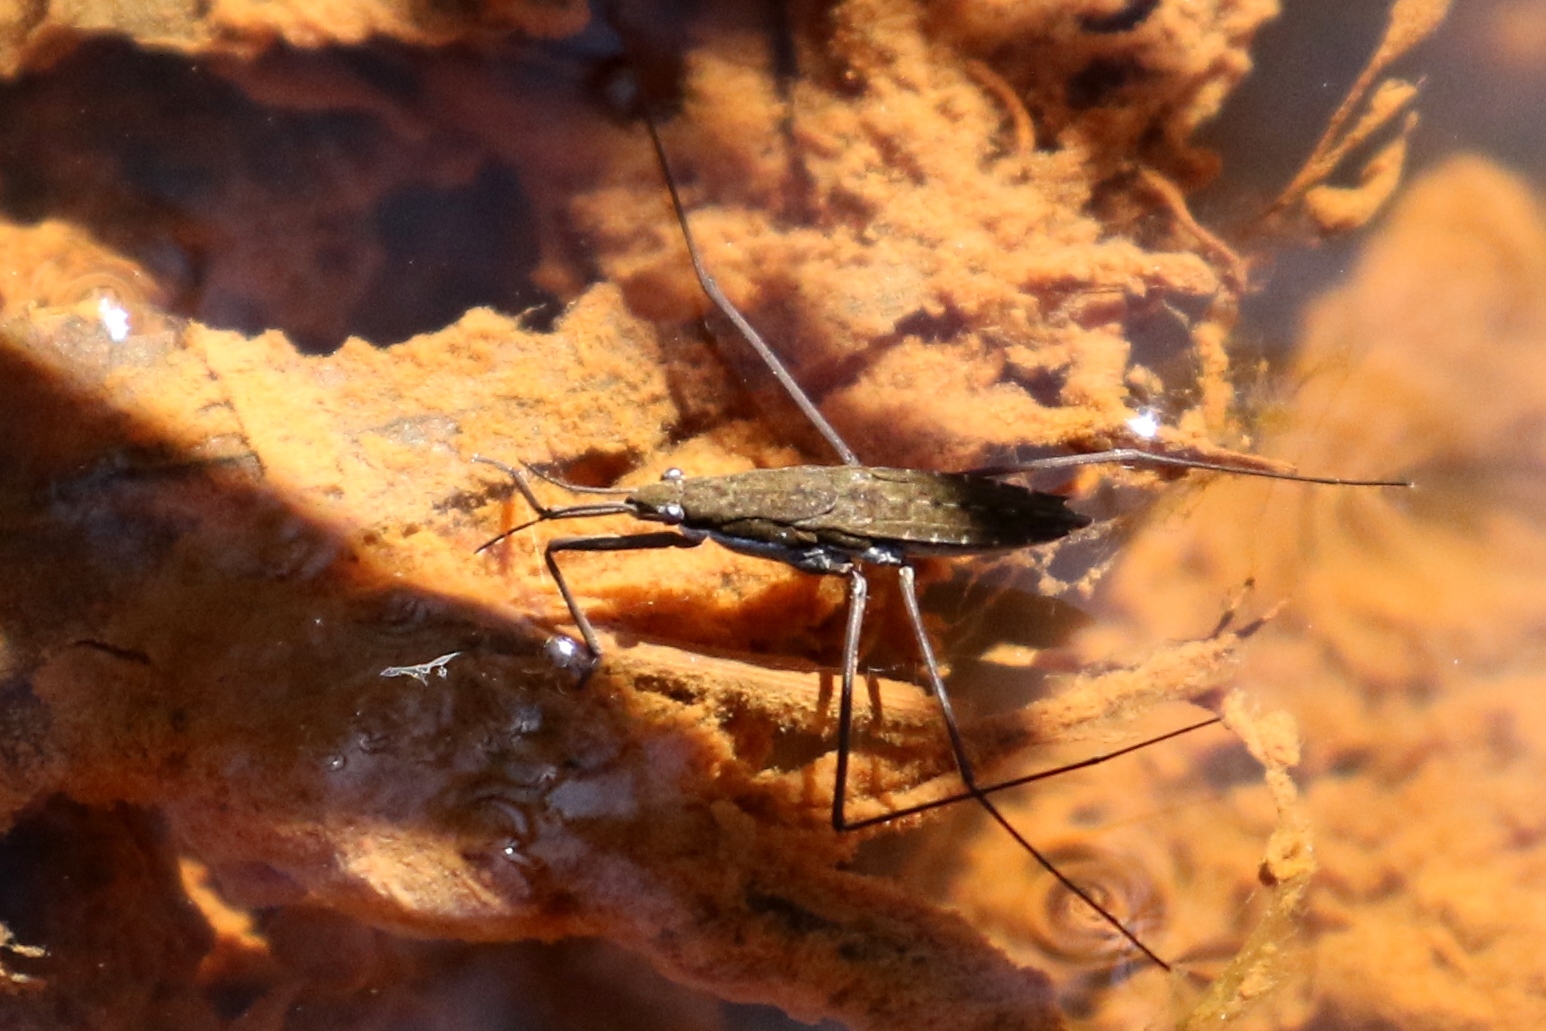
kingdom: Animalia
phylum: Arthropoda
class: Insecta
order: Hemiptera
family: Gerridae
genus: Aquarius
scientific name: Aquarius remigis
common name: Common water strider
